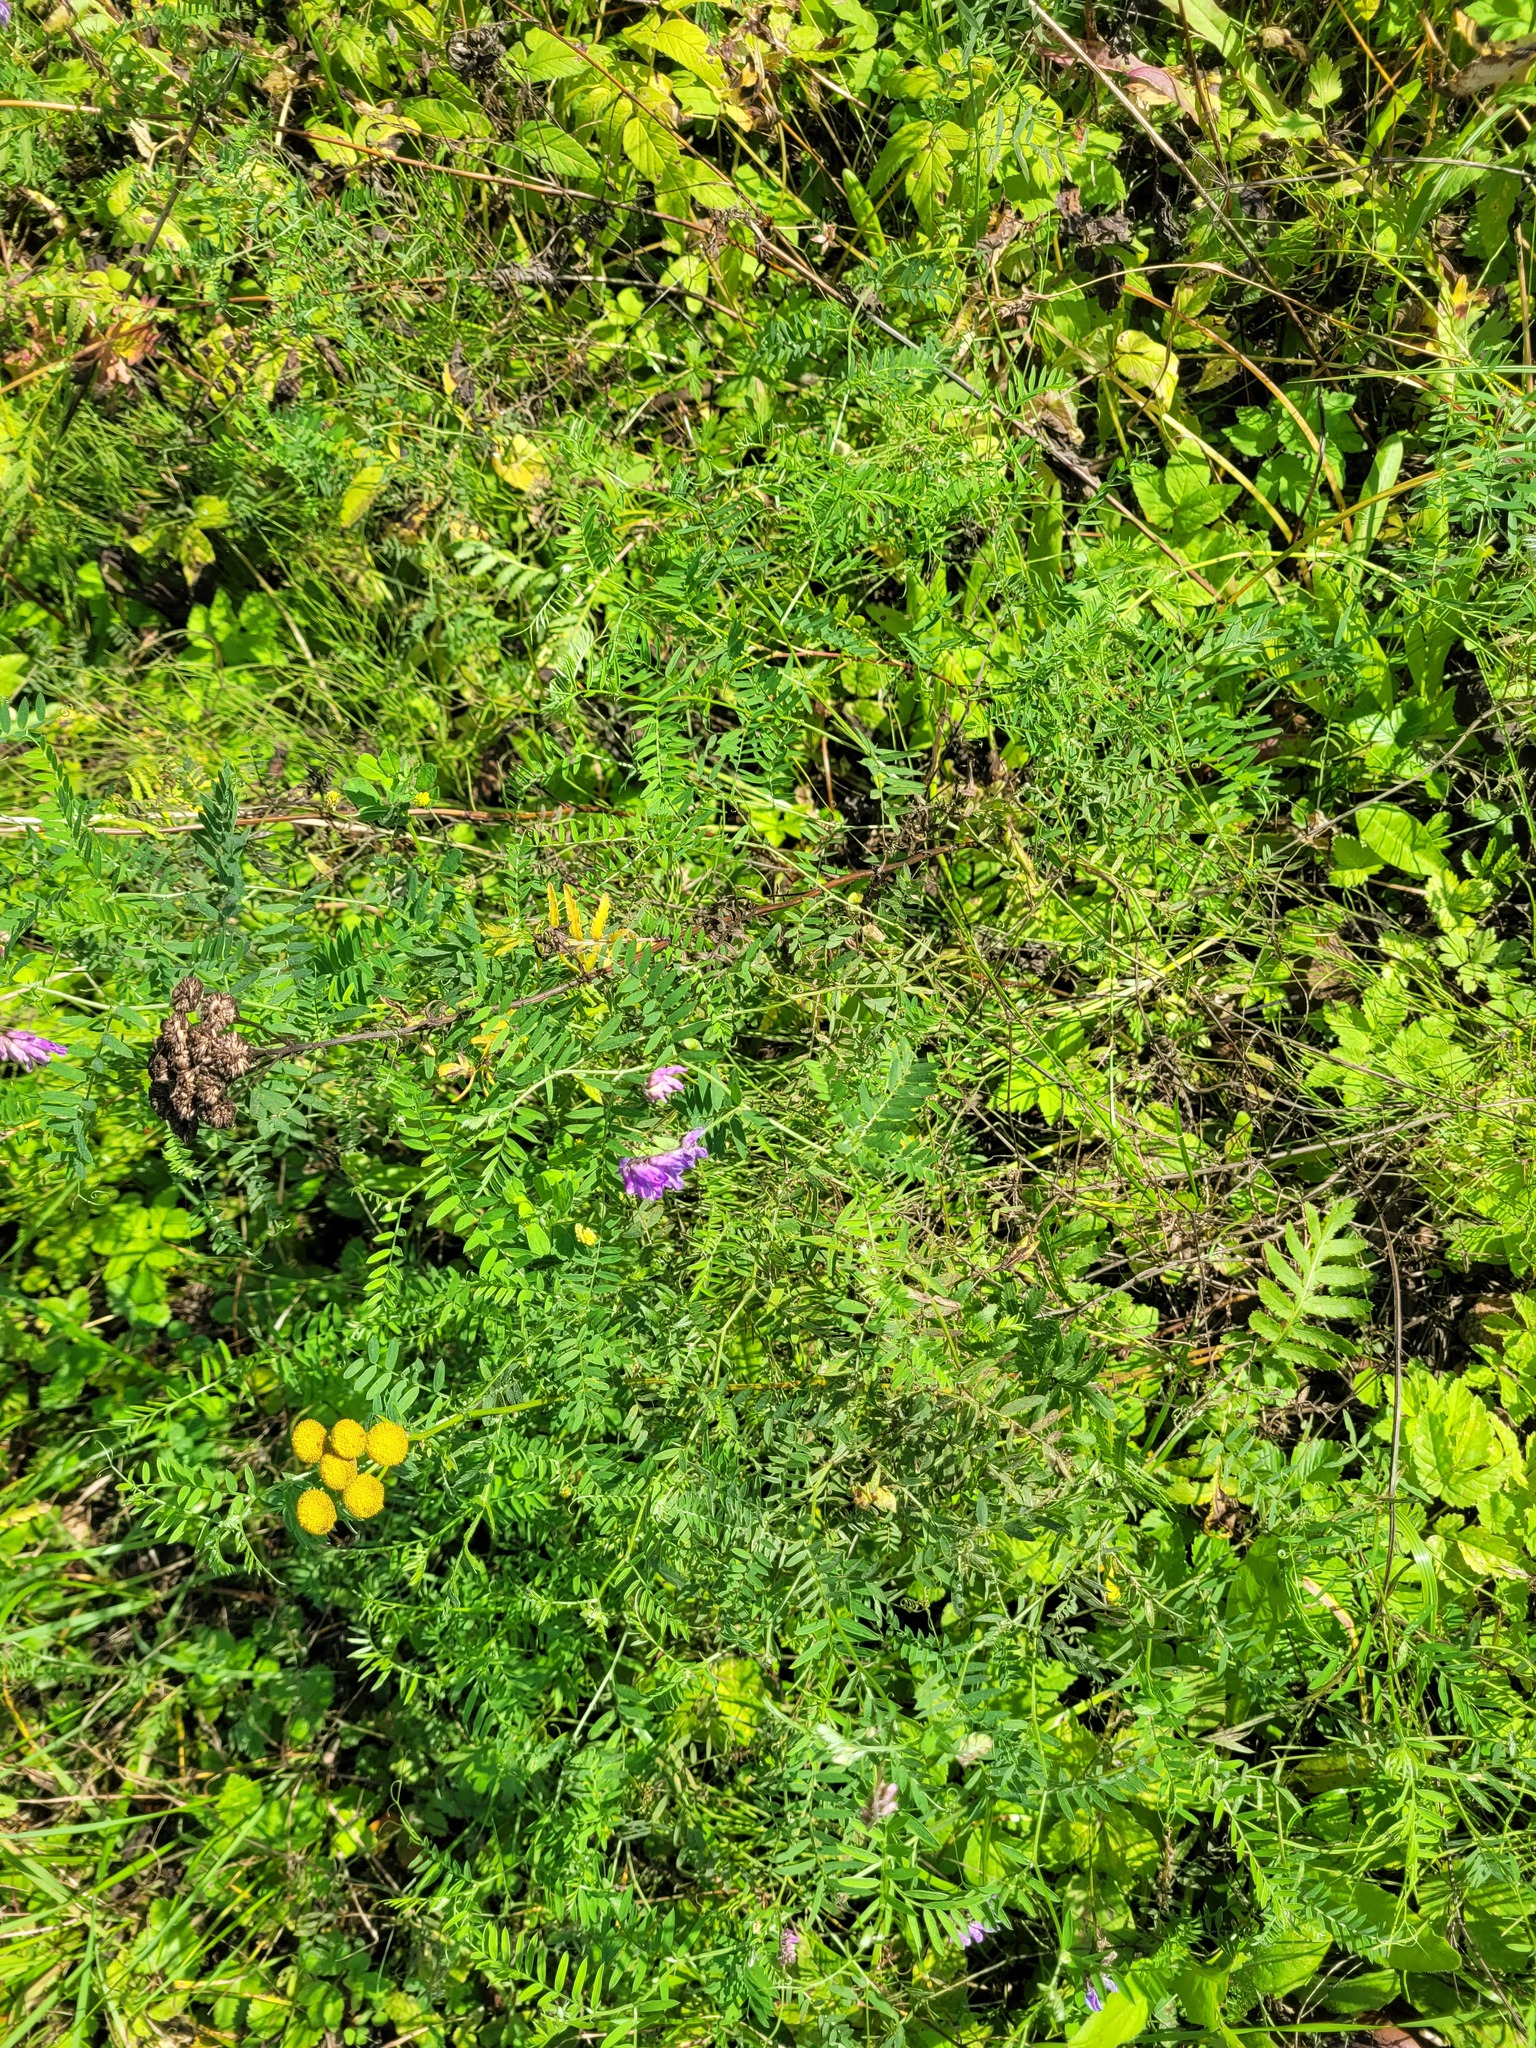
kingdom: Plantae
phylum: Tracheophyta
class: Magnoliopsida
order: Fabales
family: Fabaceae
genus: Vicia
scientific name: Vicia cracca
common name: Bird vetch
